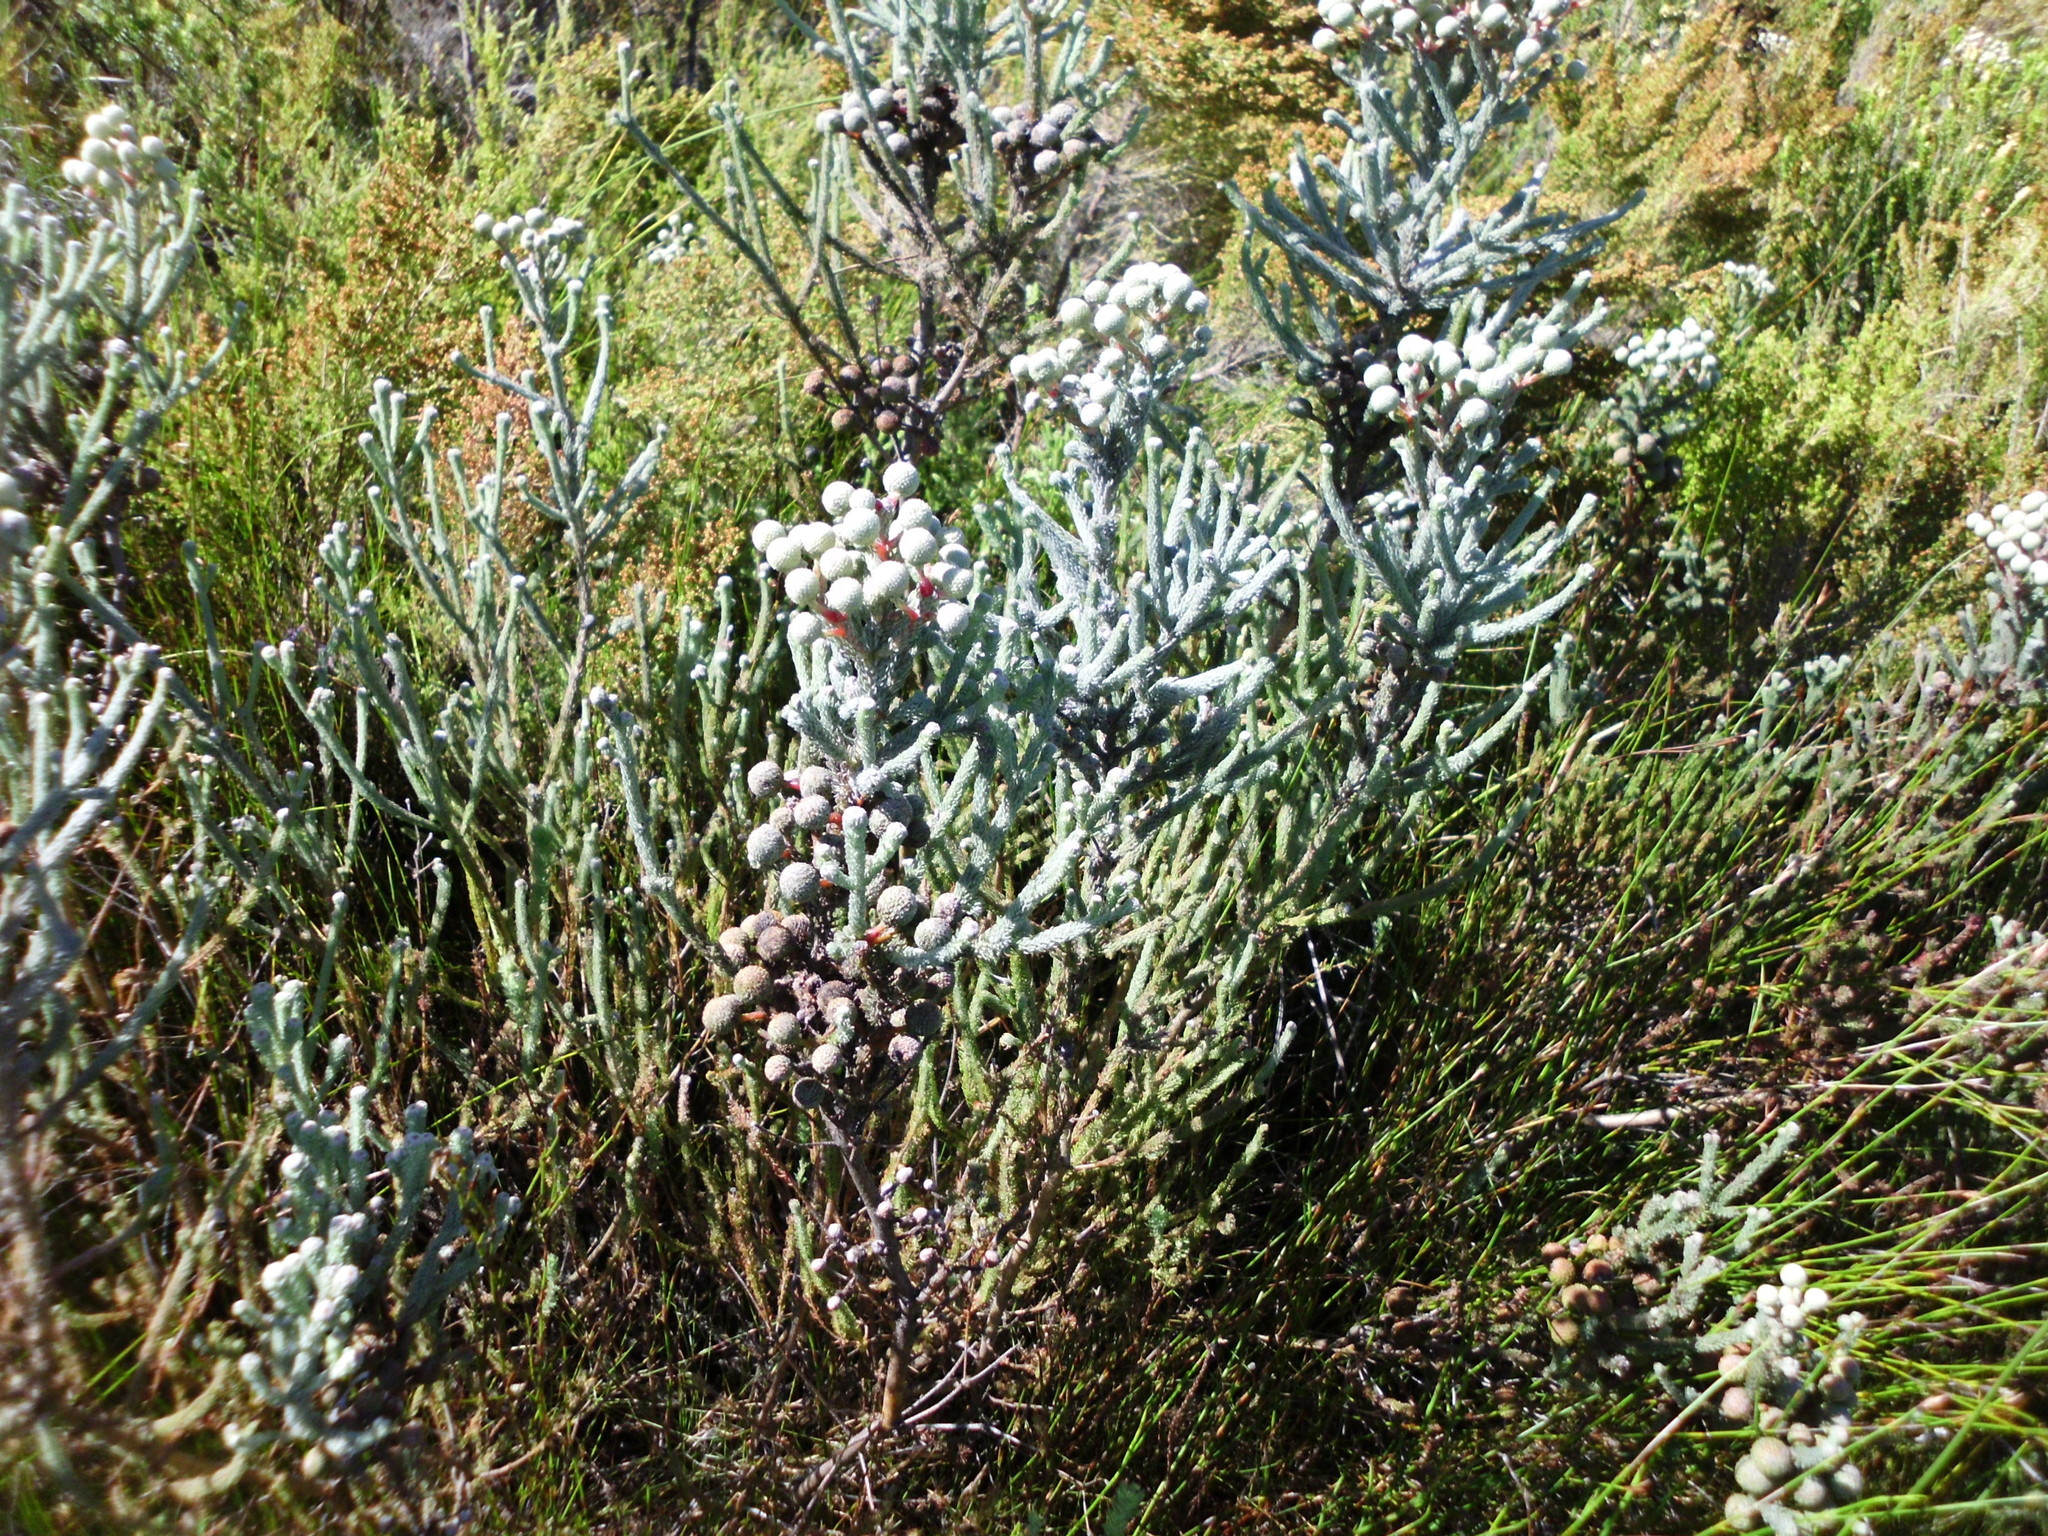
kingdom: Plantae
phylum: Tracheophyta
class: Magnoliopsida
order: Bruniales
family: Bruniaceae
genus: Berzelia
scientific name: Berzelia burchellii
